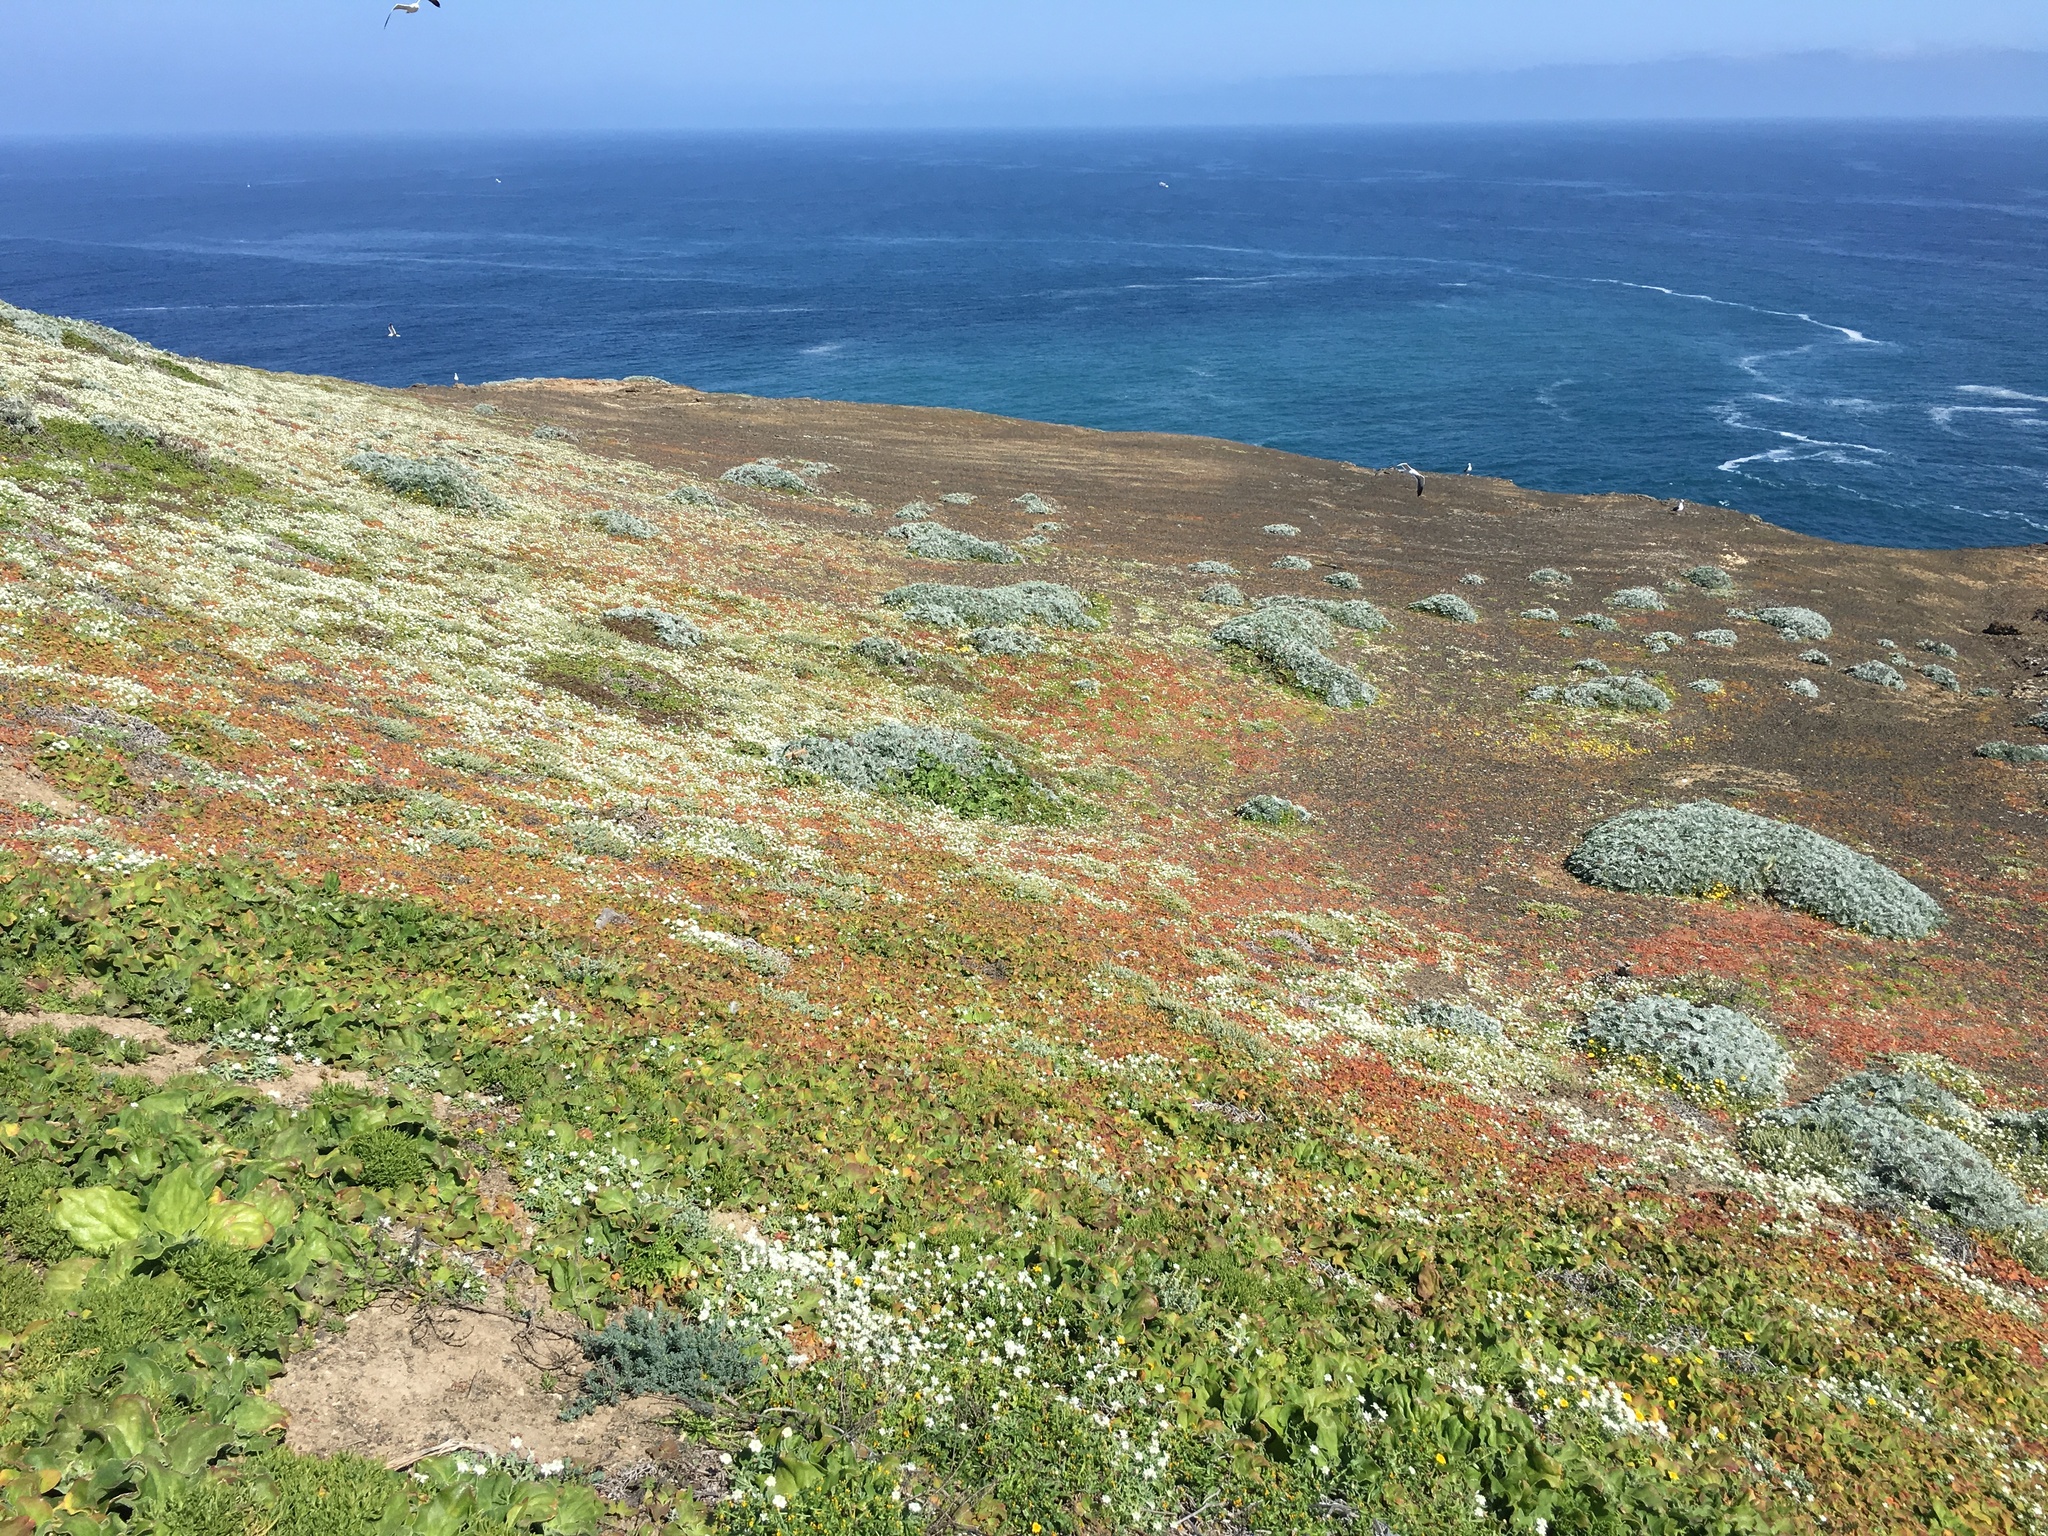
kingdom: Plantae
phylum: Tracheophyta
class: Magnoliopsida
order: Ranunculales
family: Papaveraceae
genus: Platystemon
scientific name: Platystemon californicus
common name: Cream-cups
